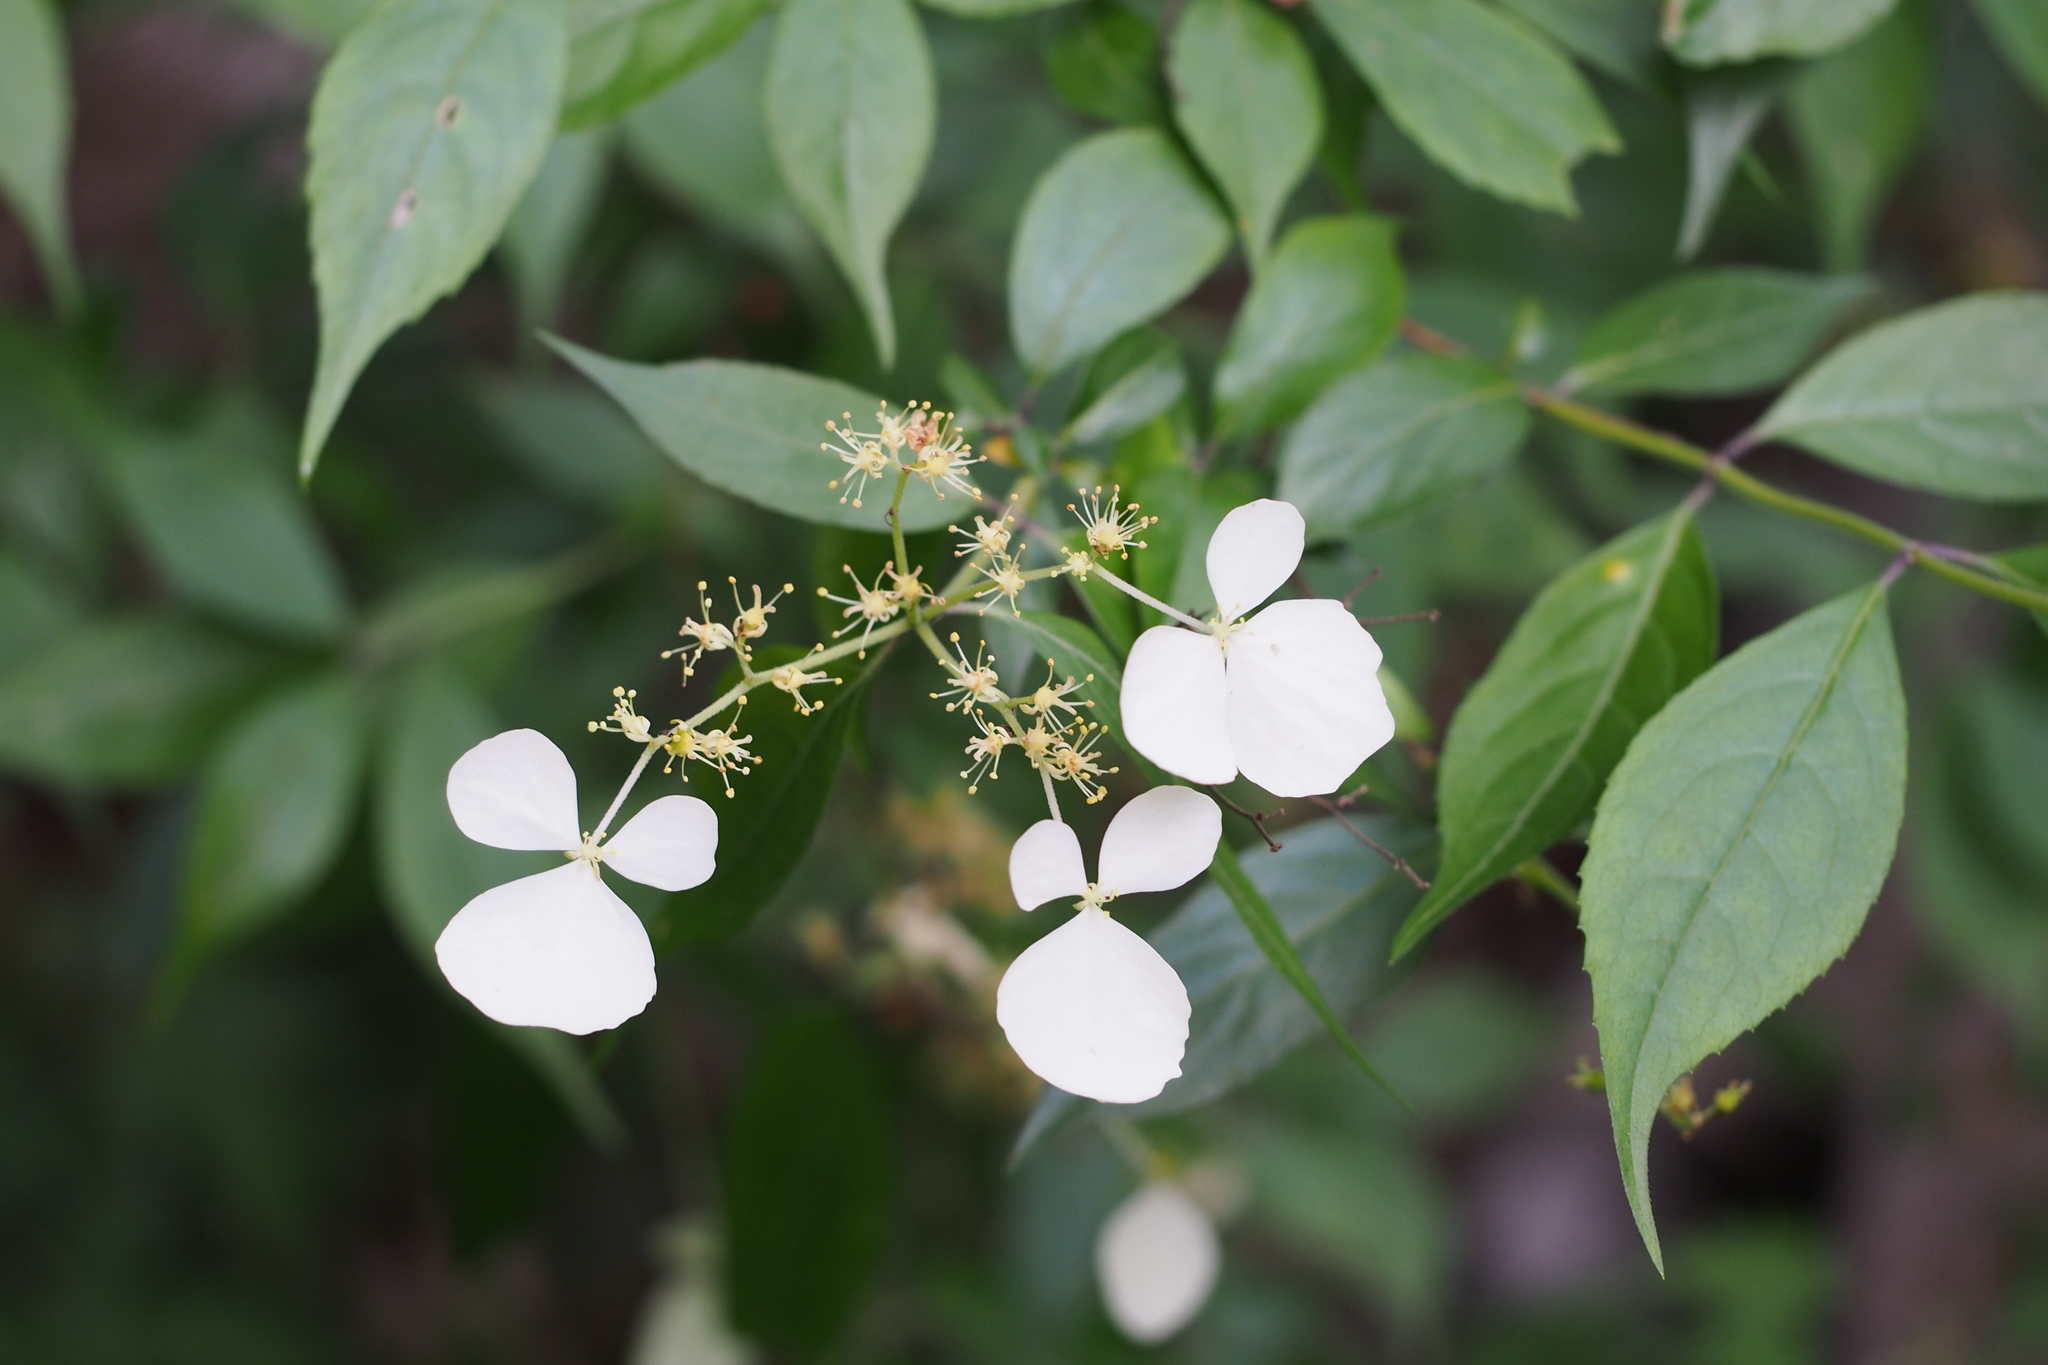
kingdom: Plantae
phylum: Tracheophyta
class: Magnoliopsida
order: Cornales
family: Hydrangeaceae
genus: Hydrangea
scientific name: Hydrangea scandens
